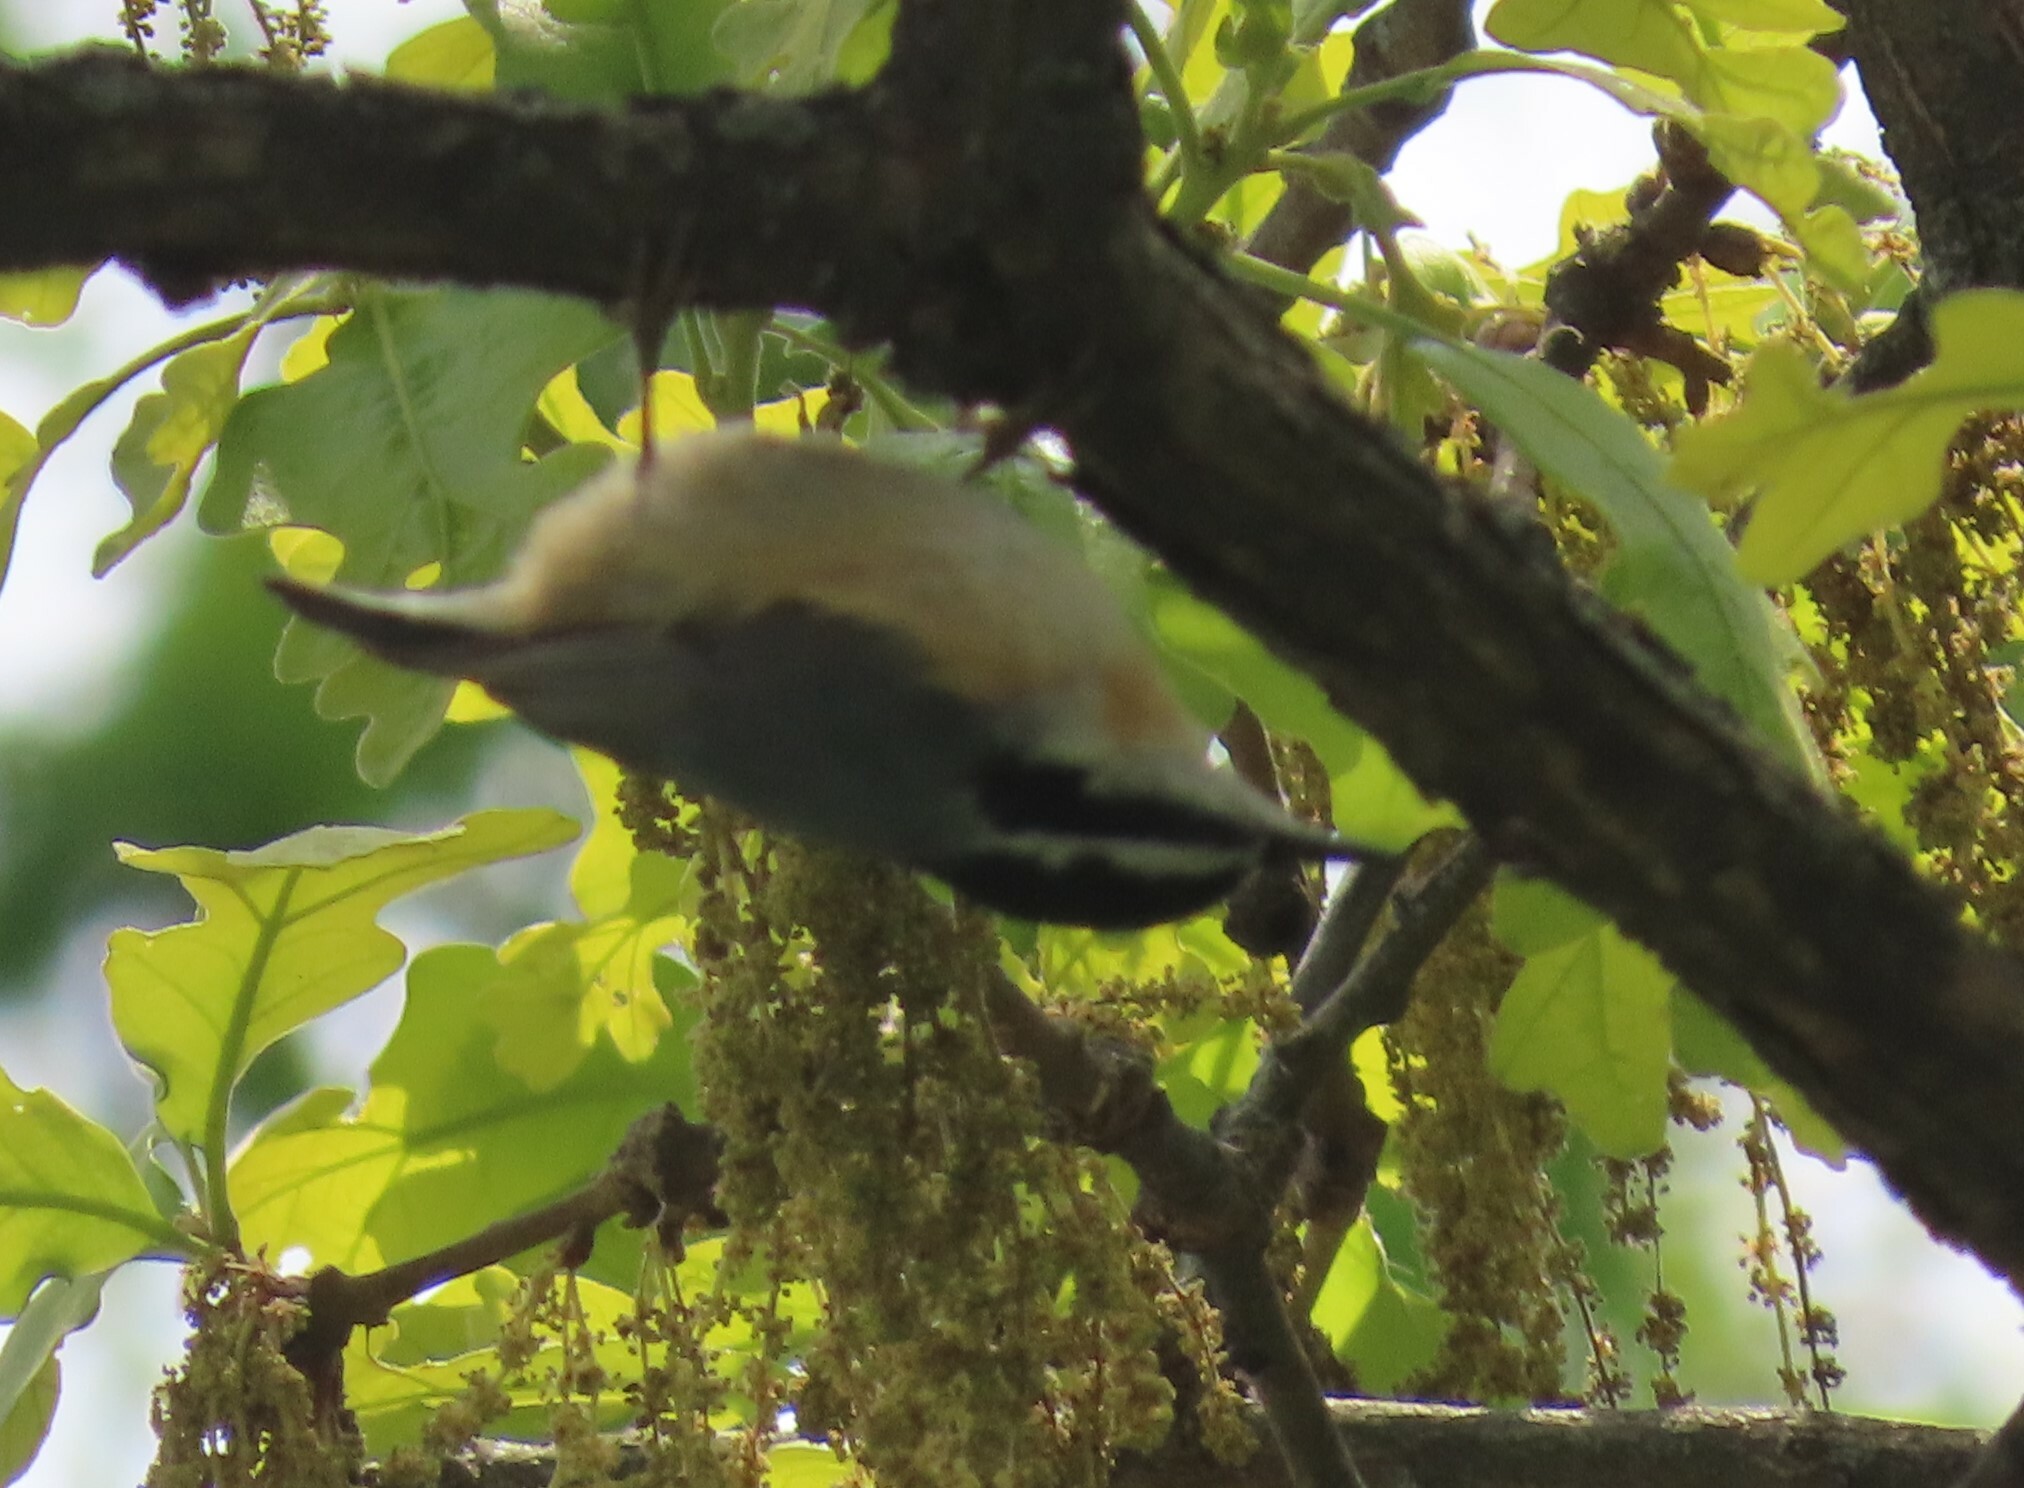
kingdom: Animalia
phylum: Chordata
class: Aves
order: Passeriformes
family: Sittidae
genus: Sitta
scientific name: Sitta canadensis
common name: Red-breasted nuthatch
